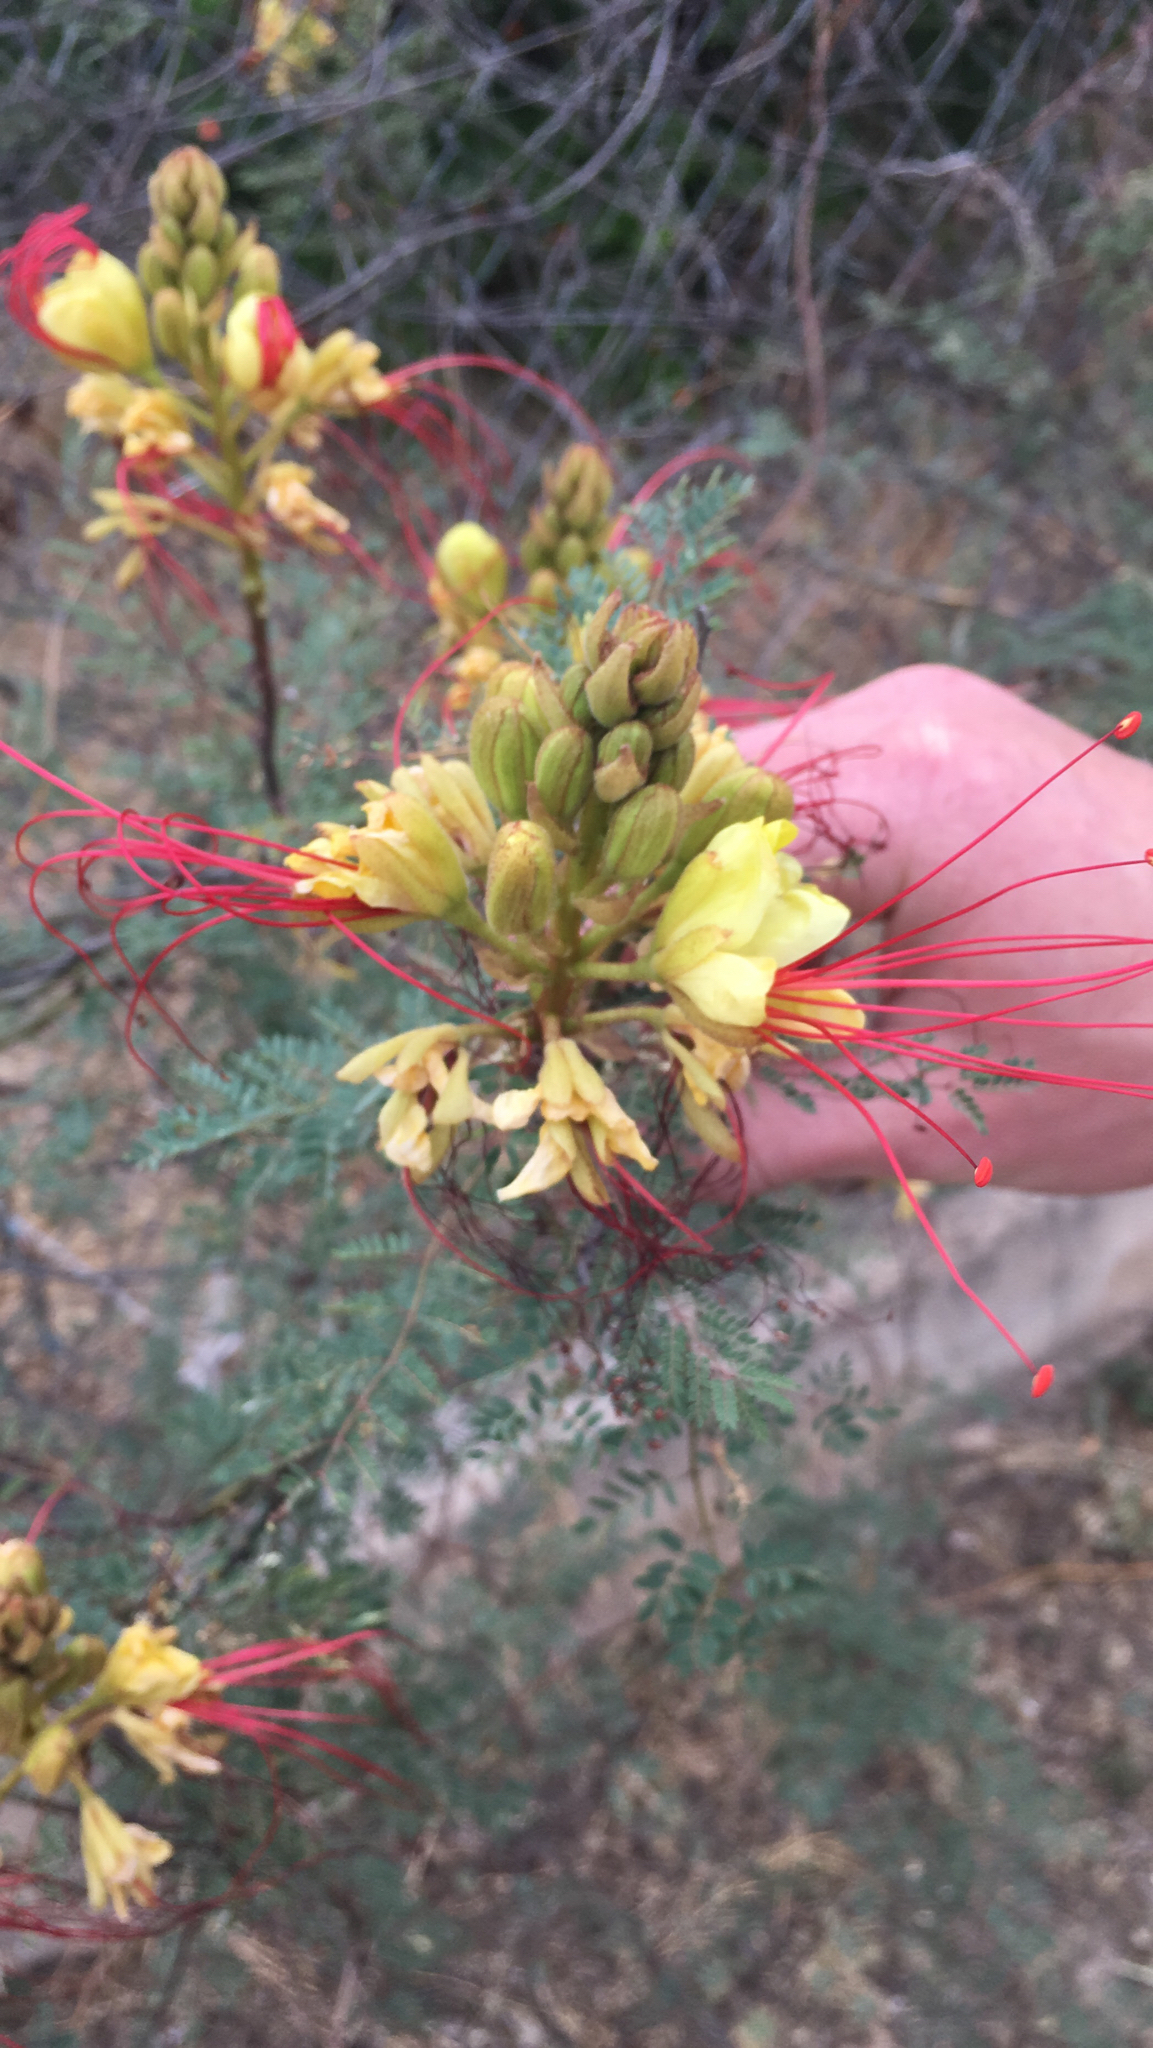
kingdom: Plantae
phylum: Tracheophyta
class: Magnoliopsida
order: Fabales
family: Fabaceae
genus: Erythrostemon
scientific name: Erythrostemon gilliesii
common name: Bird-of-paradise shrub
